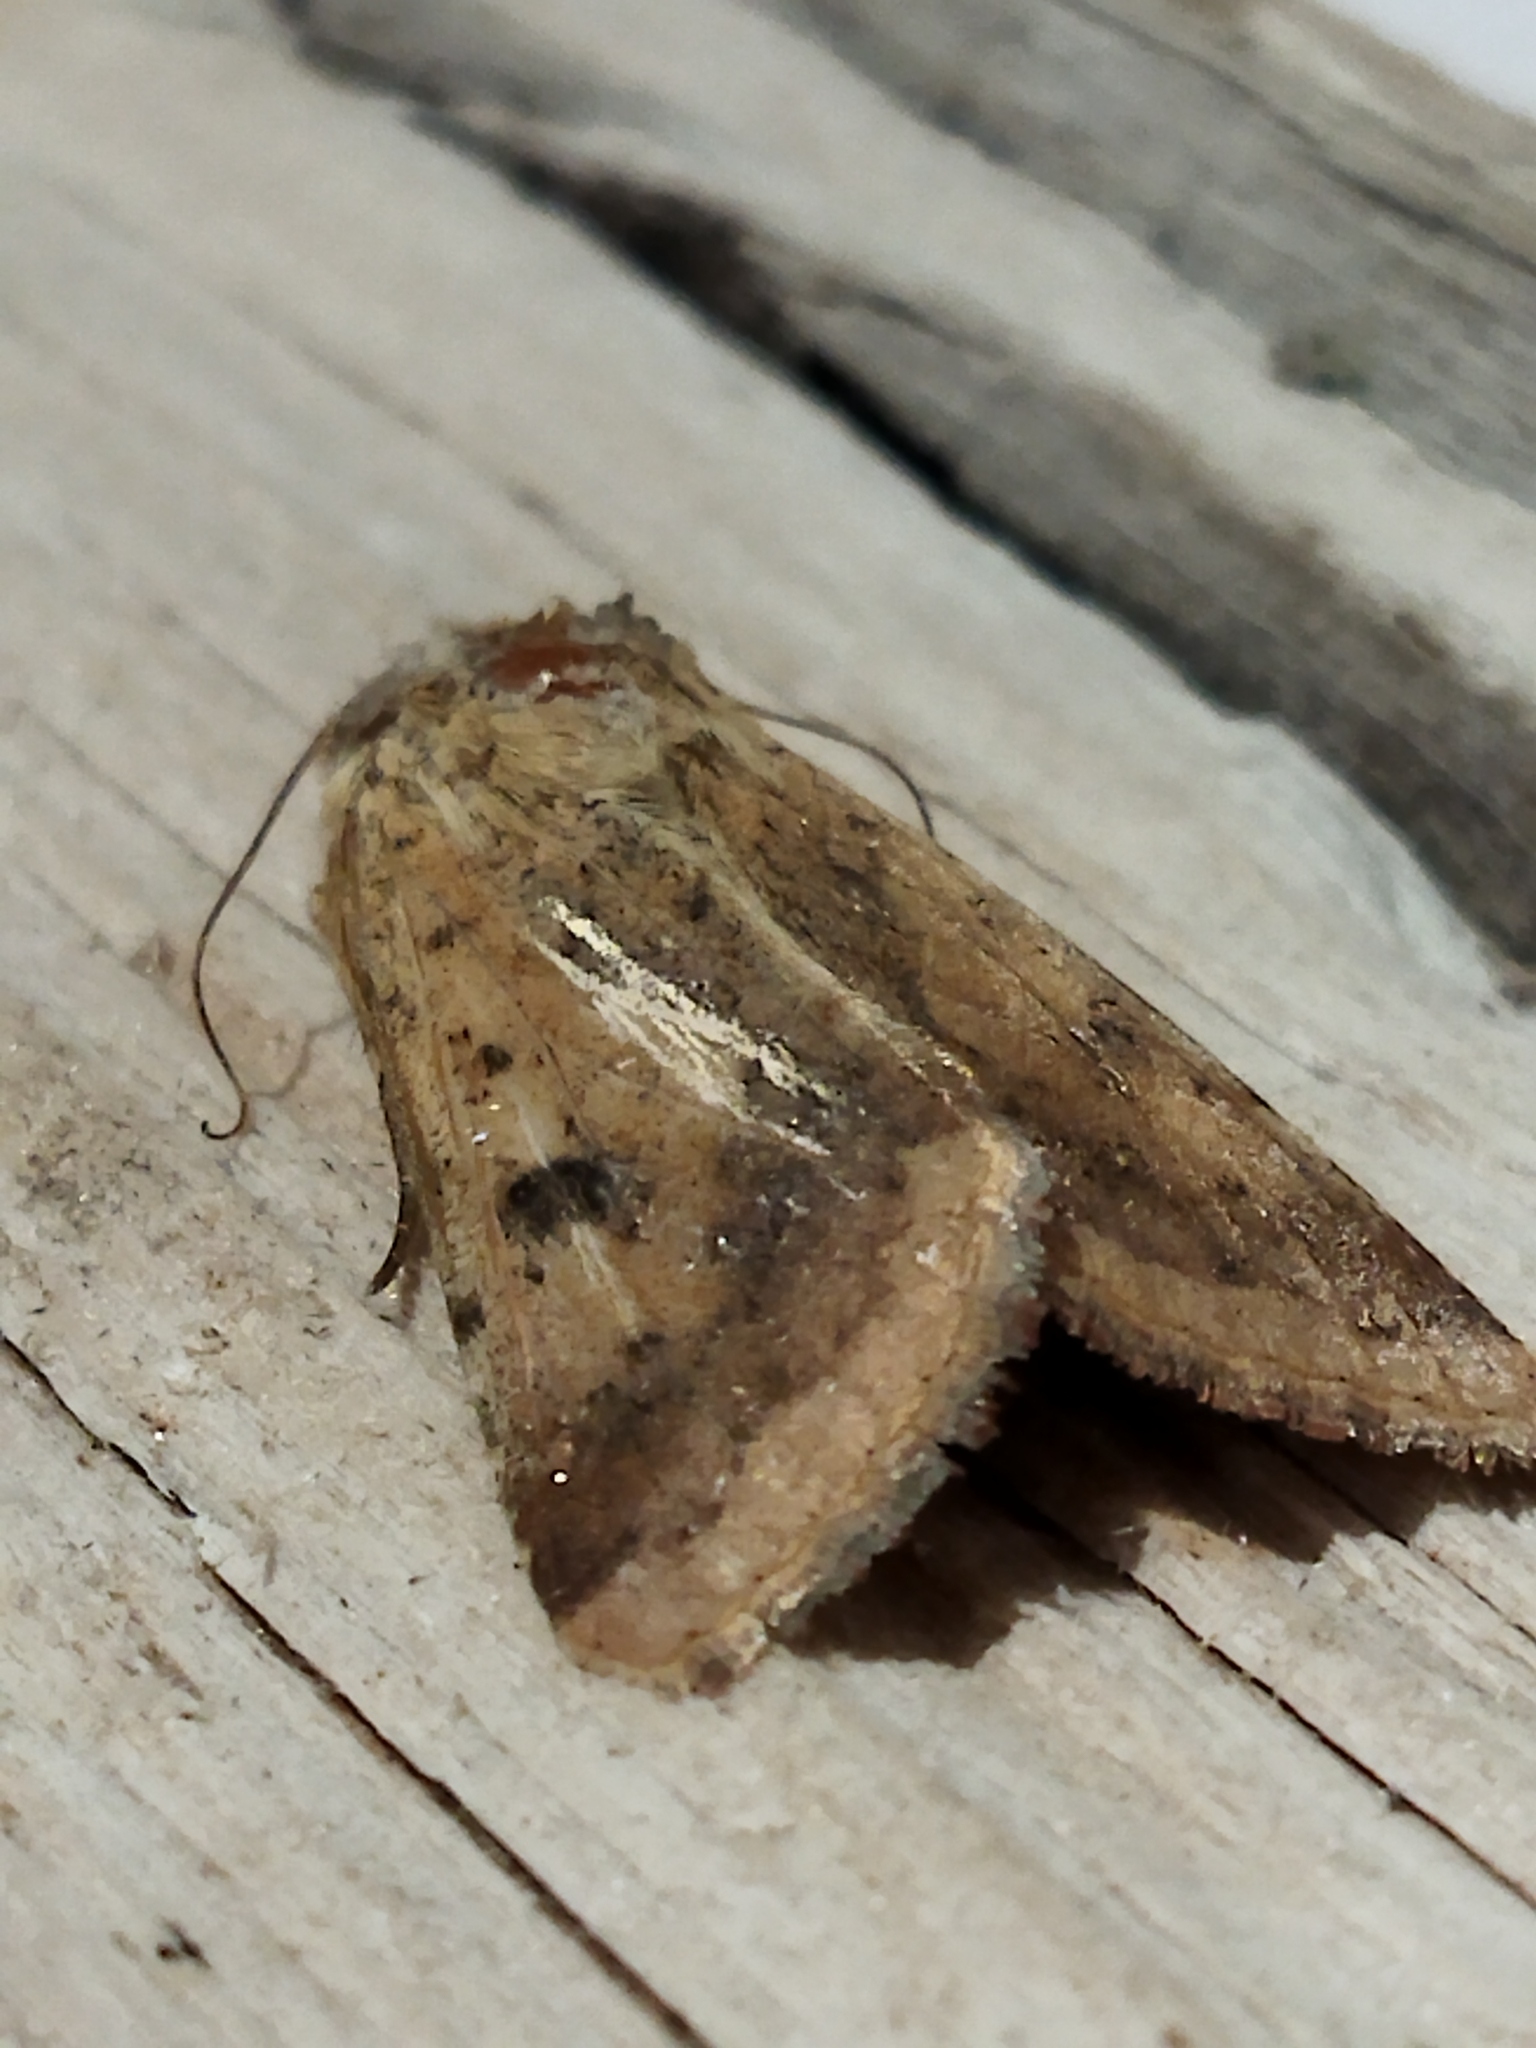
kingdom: Animalia
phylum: Arthropoda
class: Insecta
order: Lepidoptera
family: Noctuidae
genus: Helicoverpa
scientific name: Helicoverpa armigera
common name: Cotton bollworm
